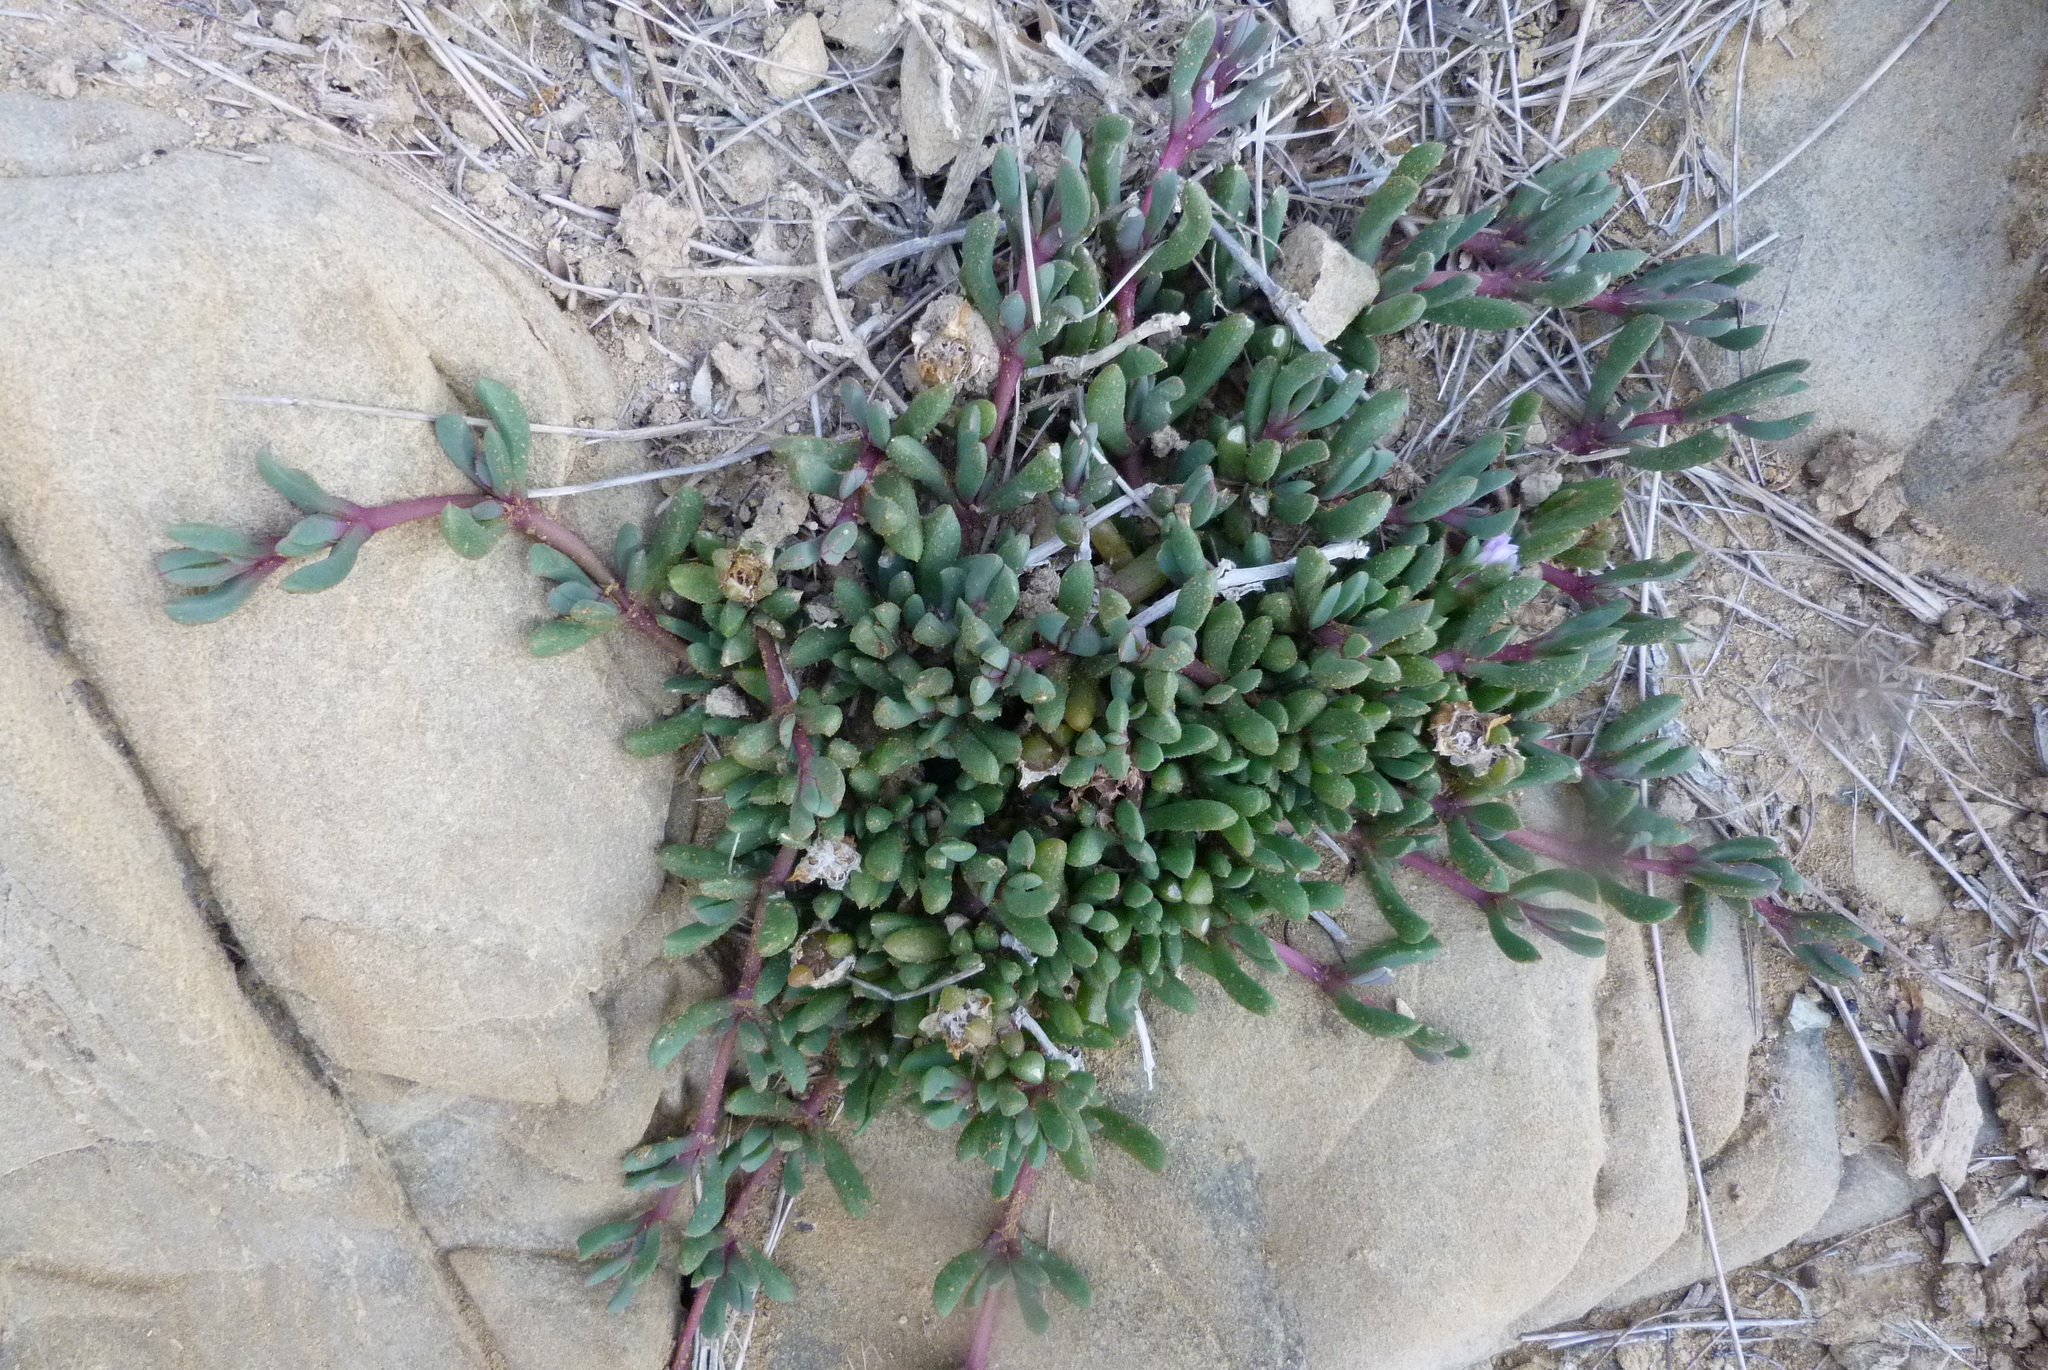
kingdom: Plantae
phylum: Tracheophyta
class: Magnoliopsida
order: Caryophyllales
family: Aizoaceae
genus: Disphyma
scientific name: Disphyma australe
